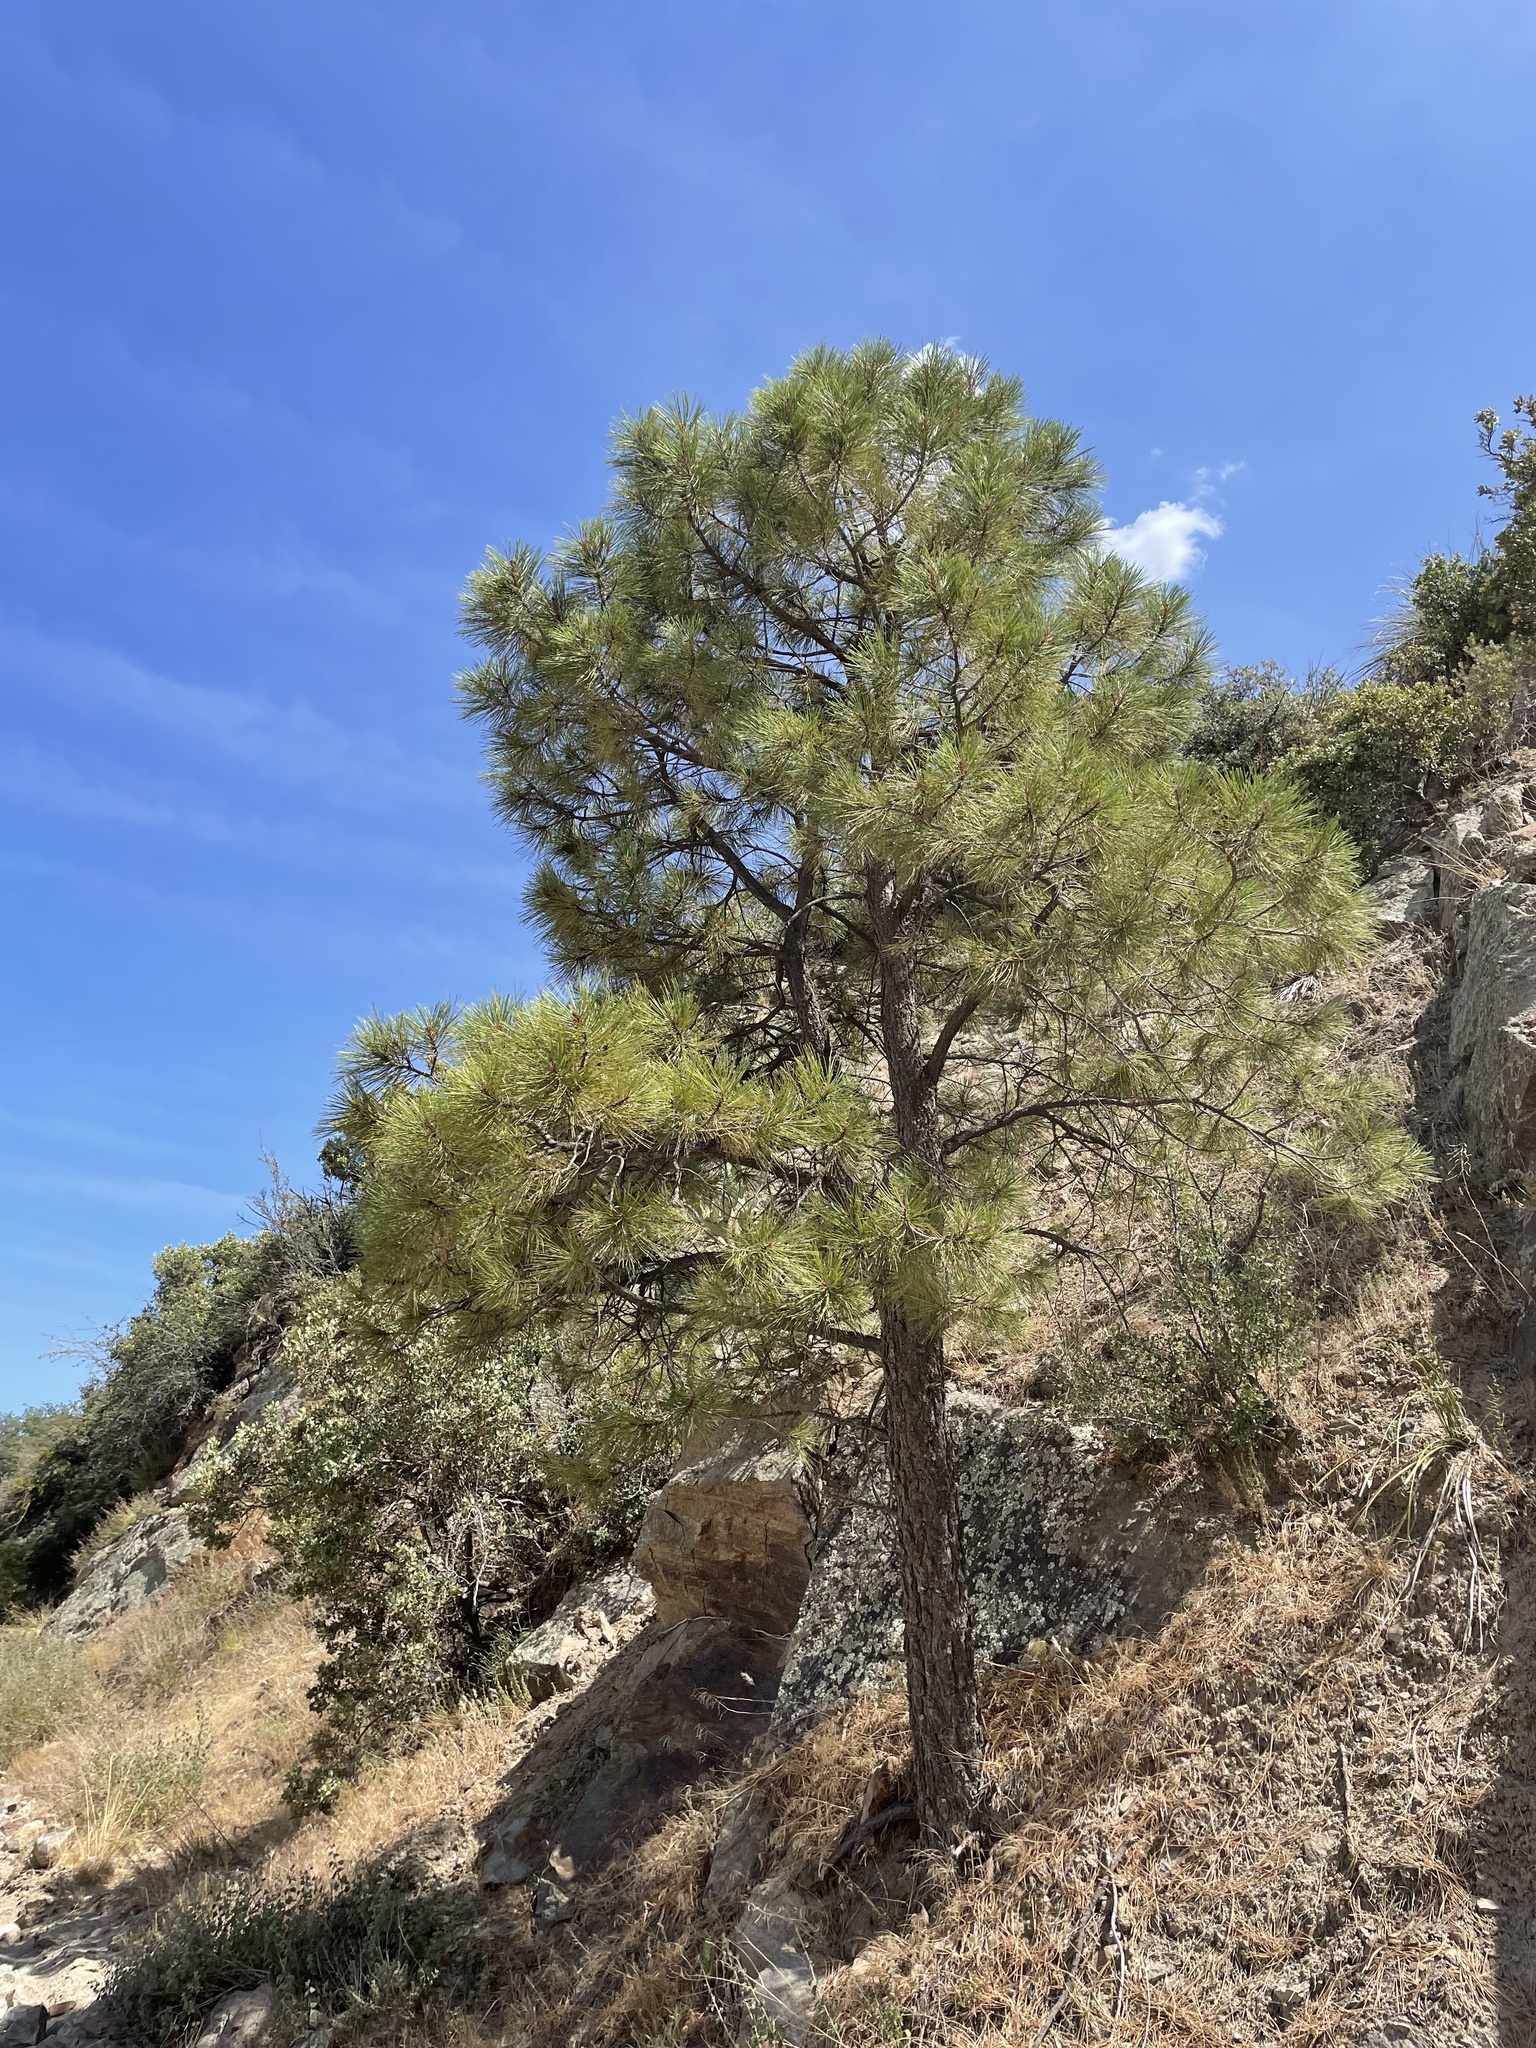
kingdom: Plantae
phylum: Tracheophyta
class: Pinopsida
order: Pinales
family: Pinaceae
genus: Pinus
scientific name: Pinus ponderosa
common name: Western yellow-pine
